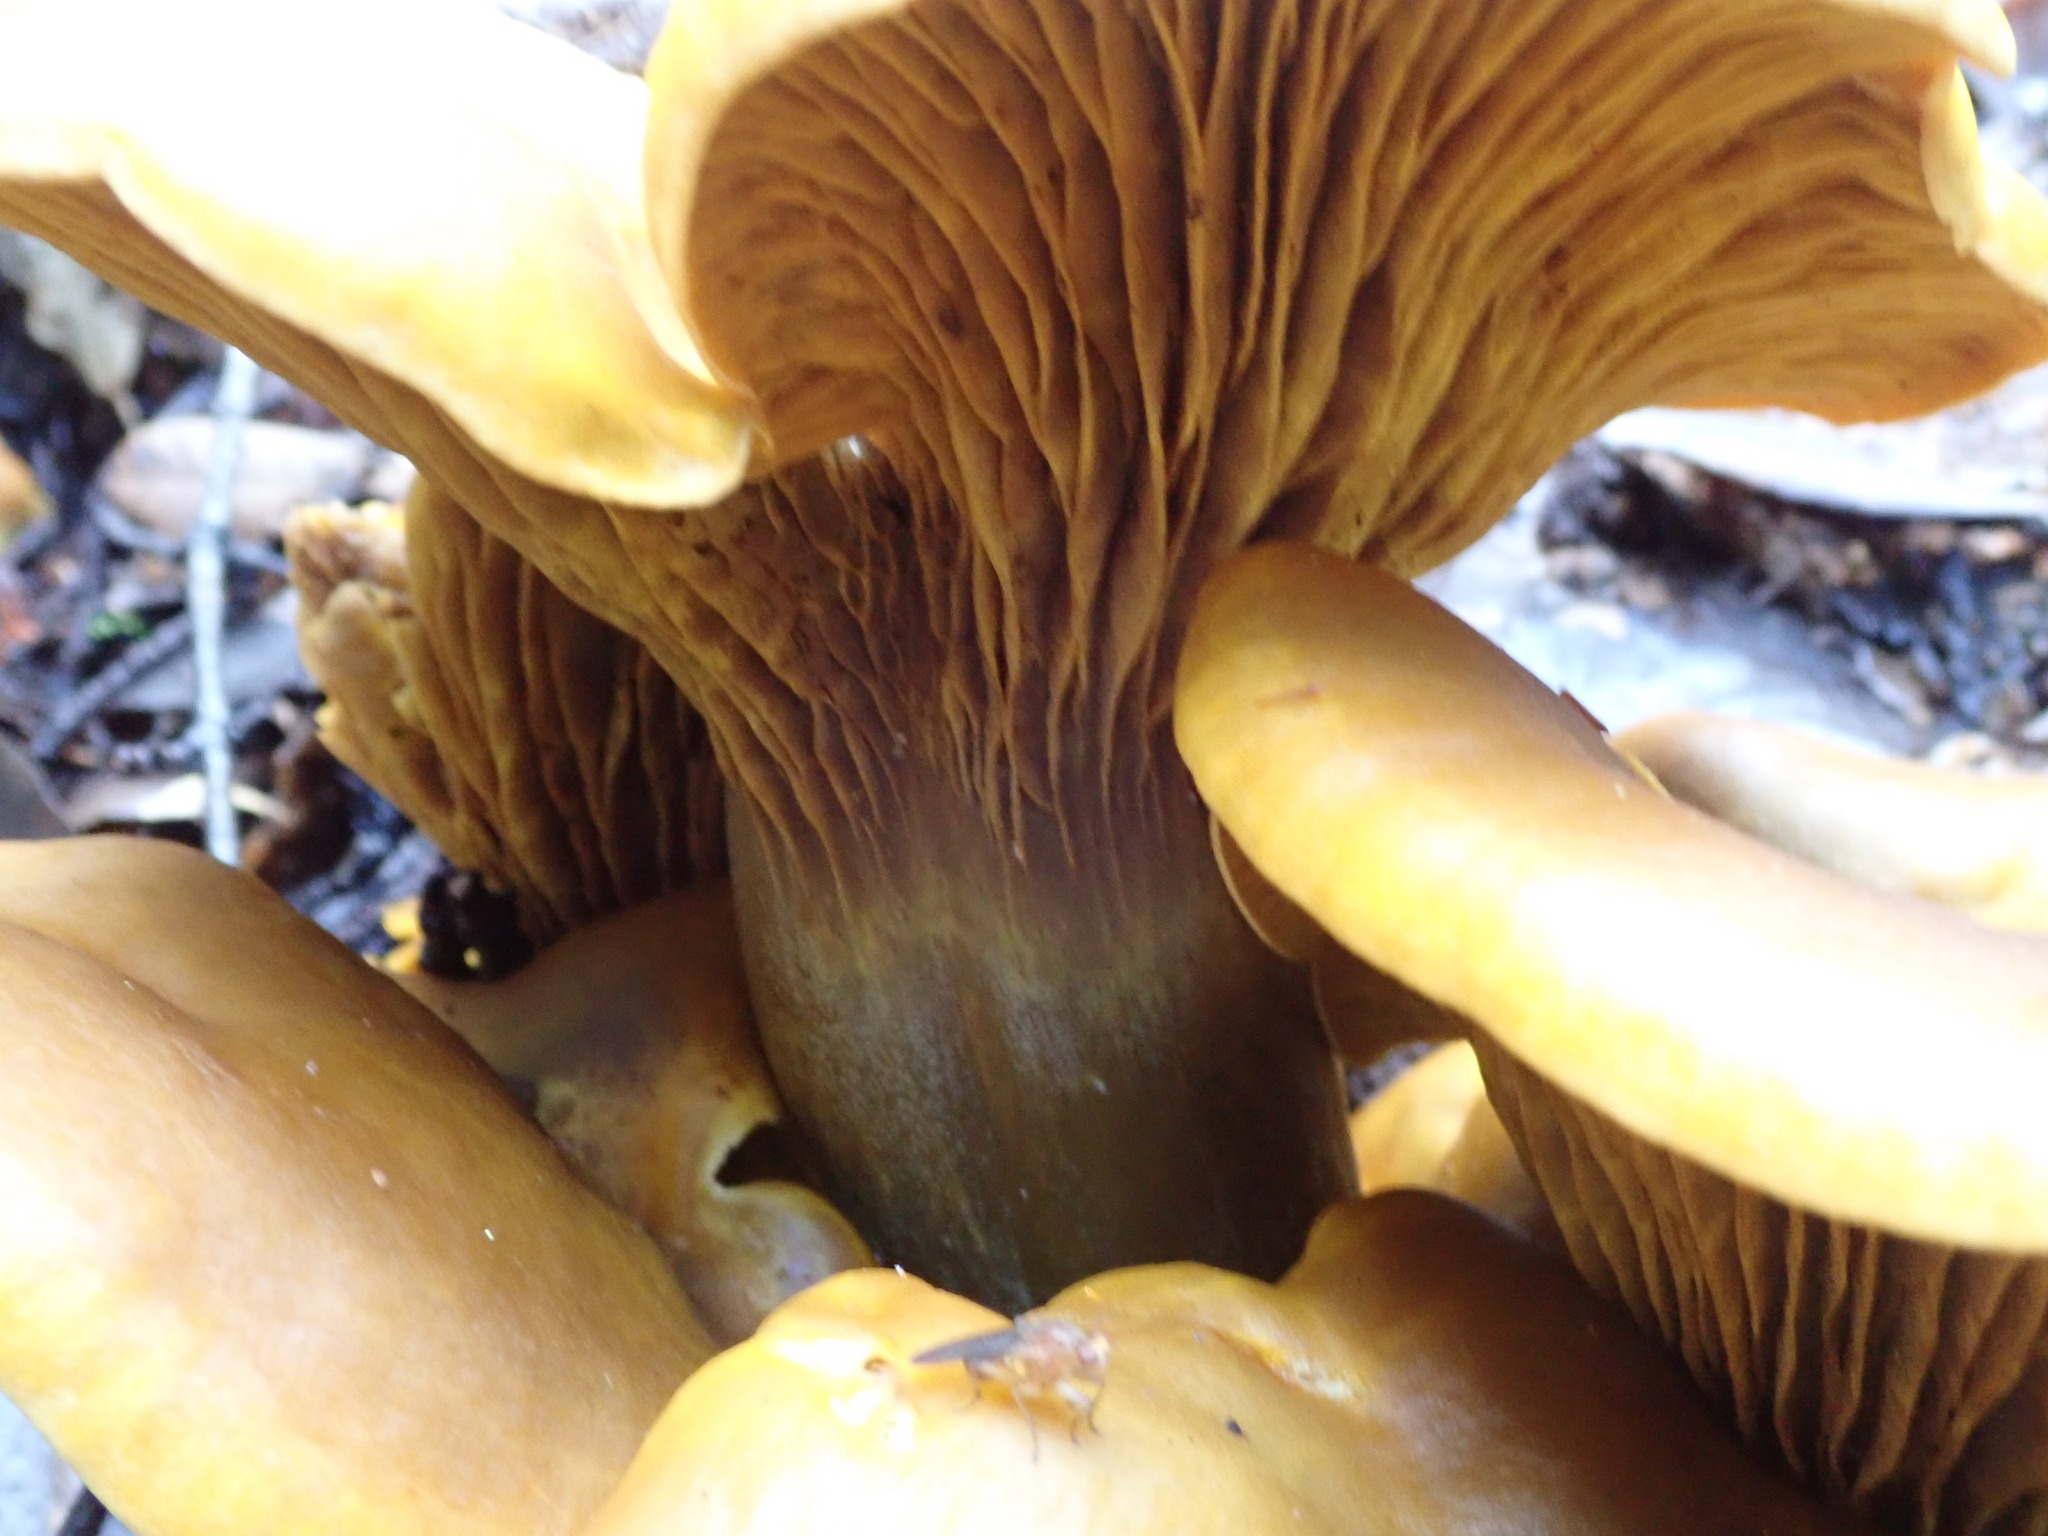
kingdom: Fungi
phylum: Basidiomycota
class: Agaricomycetes
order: Agaricales
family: Omphalotaceae
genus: Omphalotus
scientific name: Omphalotus olivascens
